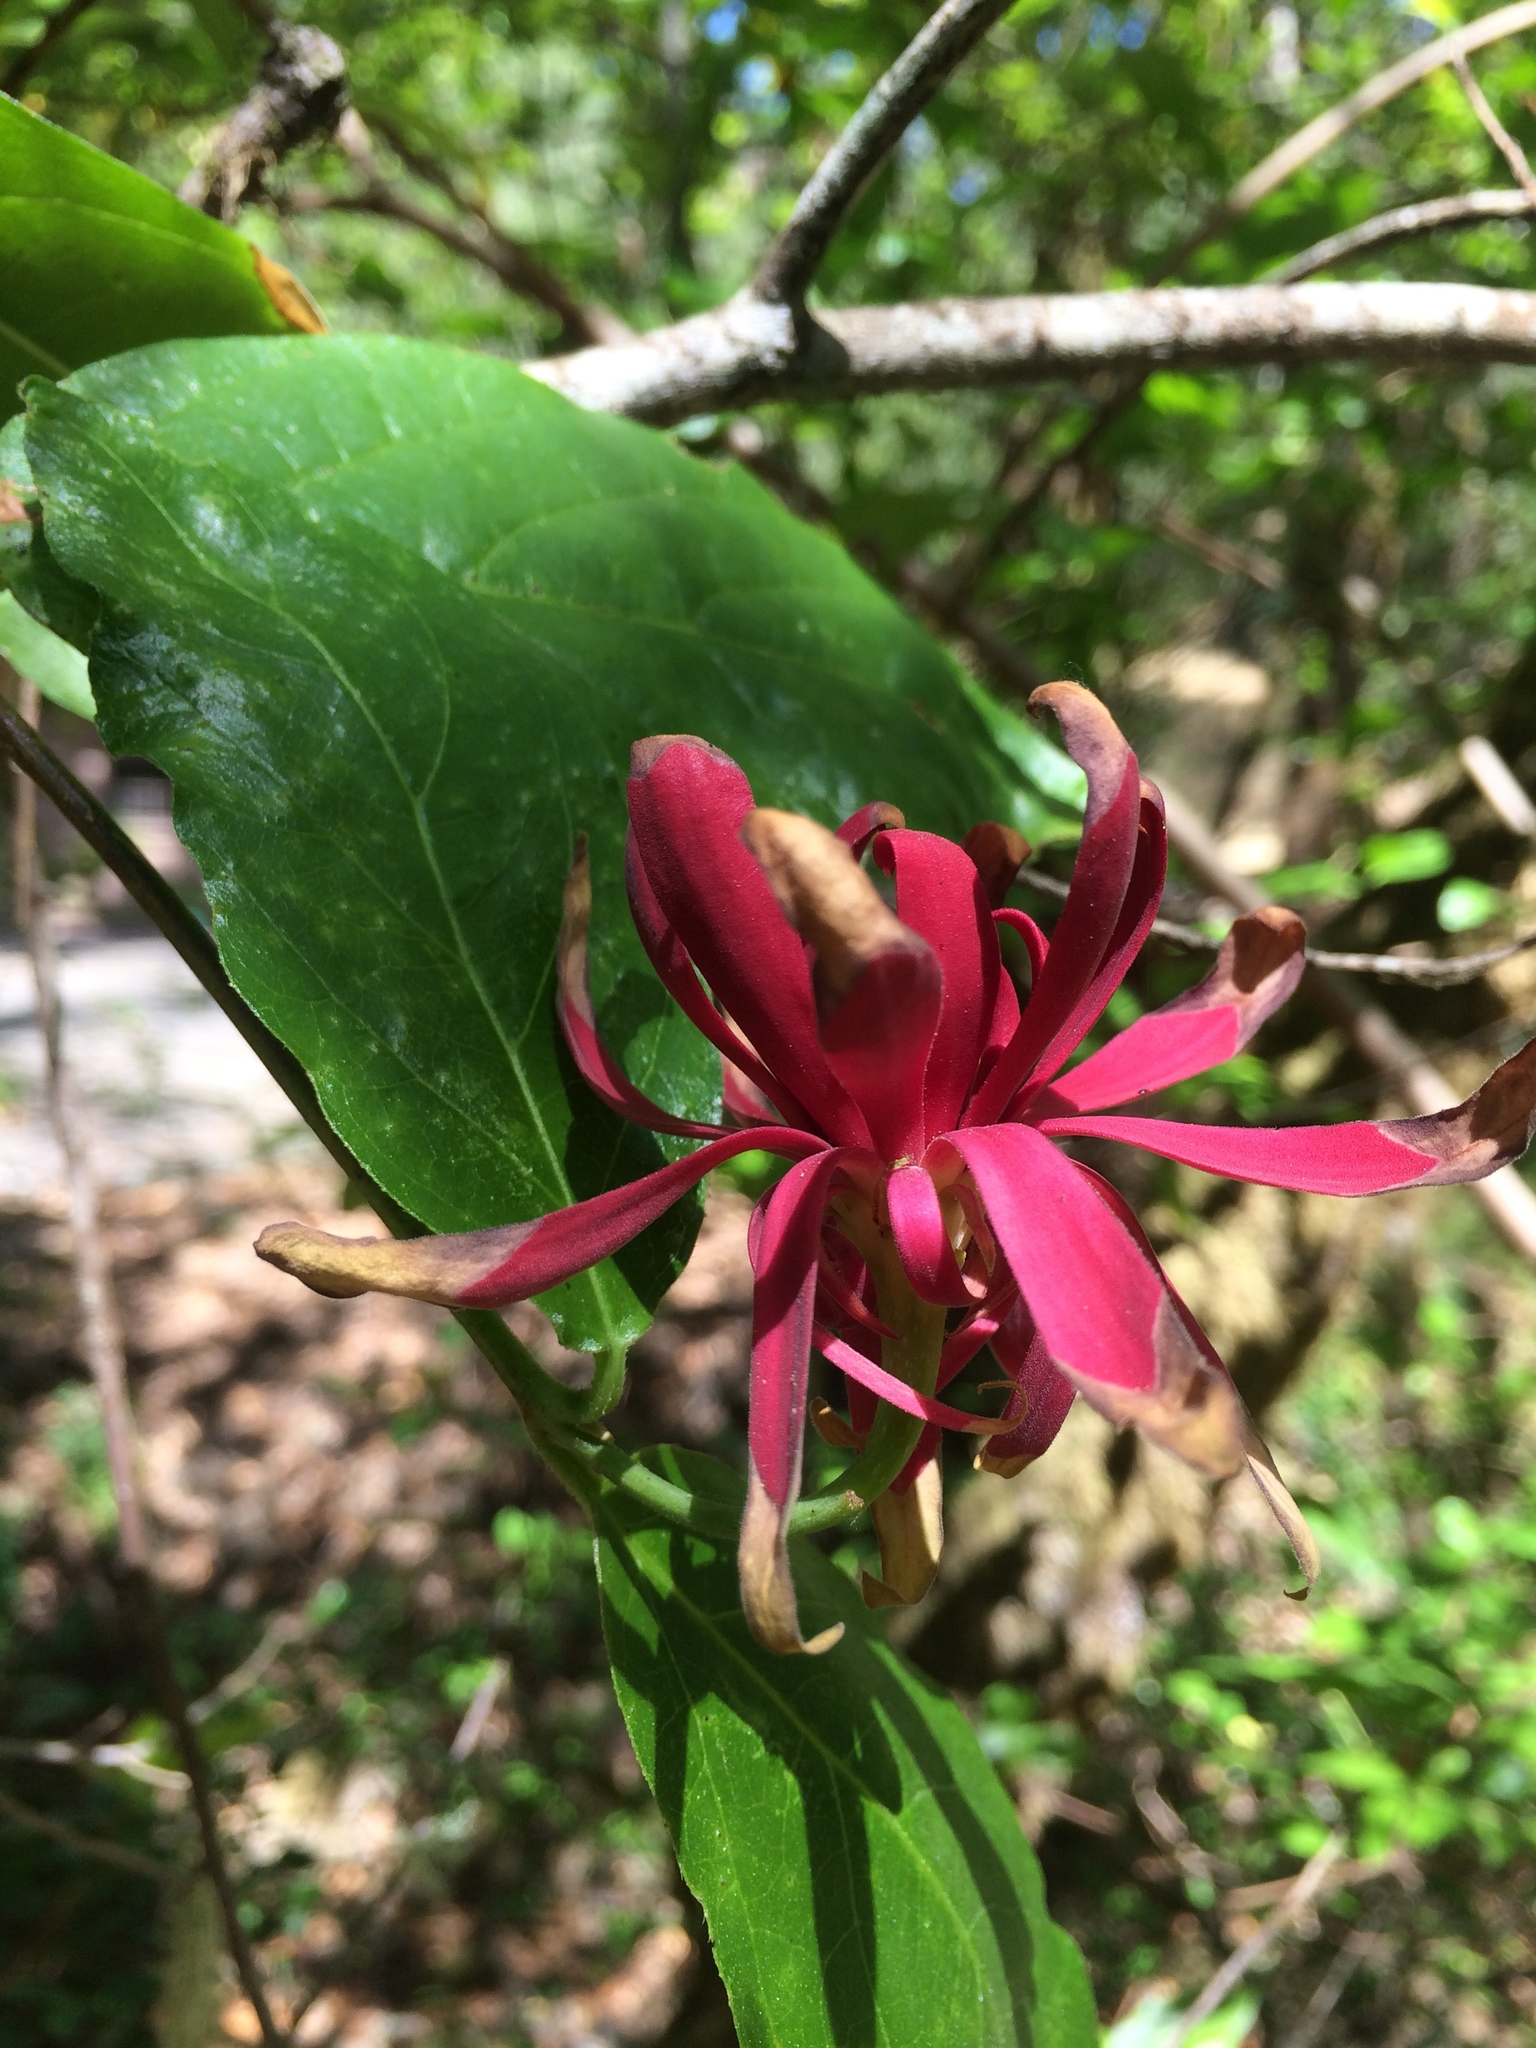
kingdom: Plantae
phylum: Tracheophyta
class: Magnoliopsida
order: Laurales
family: Calycanthaceae
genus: Calycanthus
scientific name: Calycanthus occidentalis
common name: California spicebush
